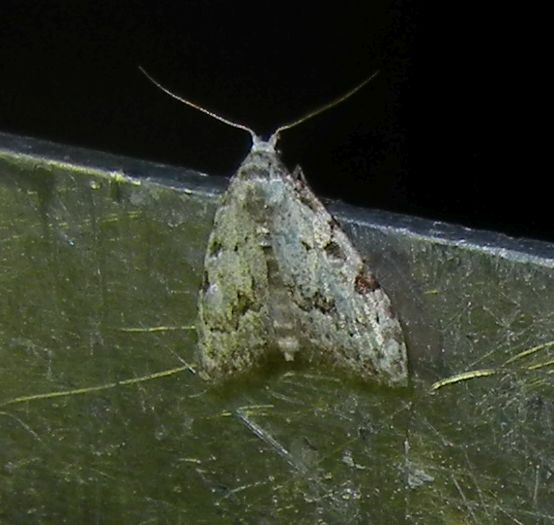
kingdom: Animalia
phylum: Arthropoda
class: Insecta
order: Lepidoptera
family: Nolidae
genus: Nola
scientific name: Nola confusalis
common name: Least black arches
